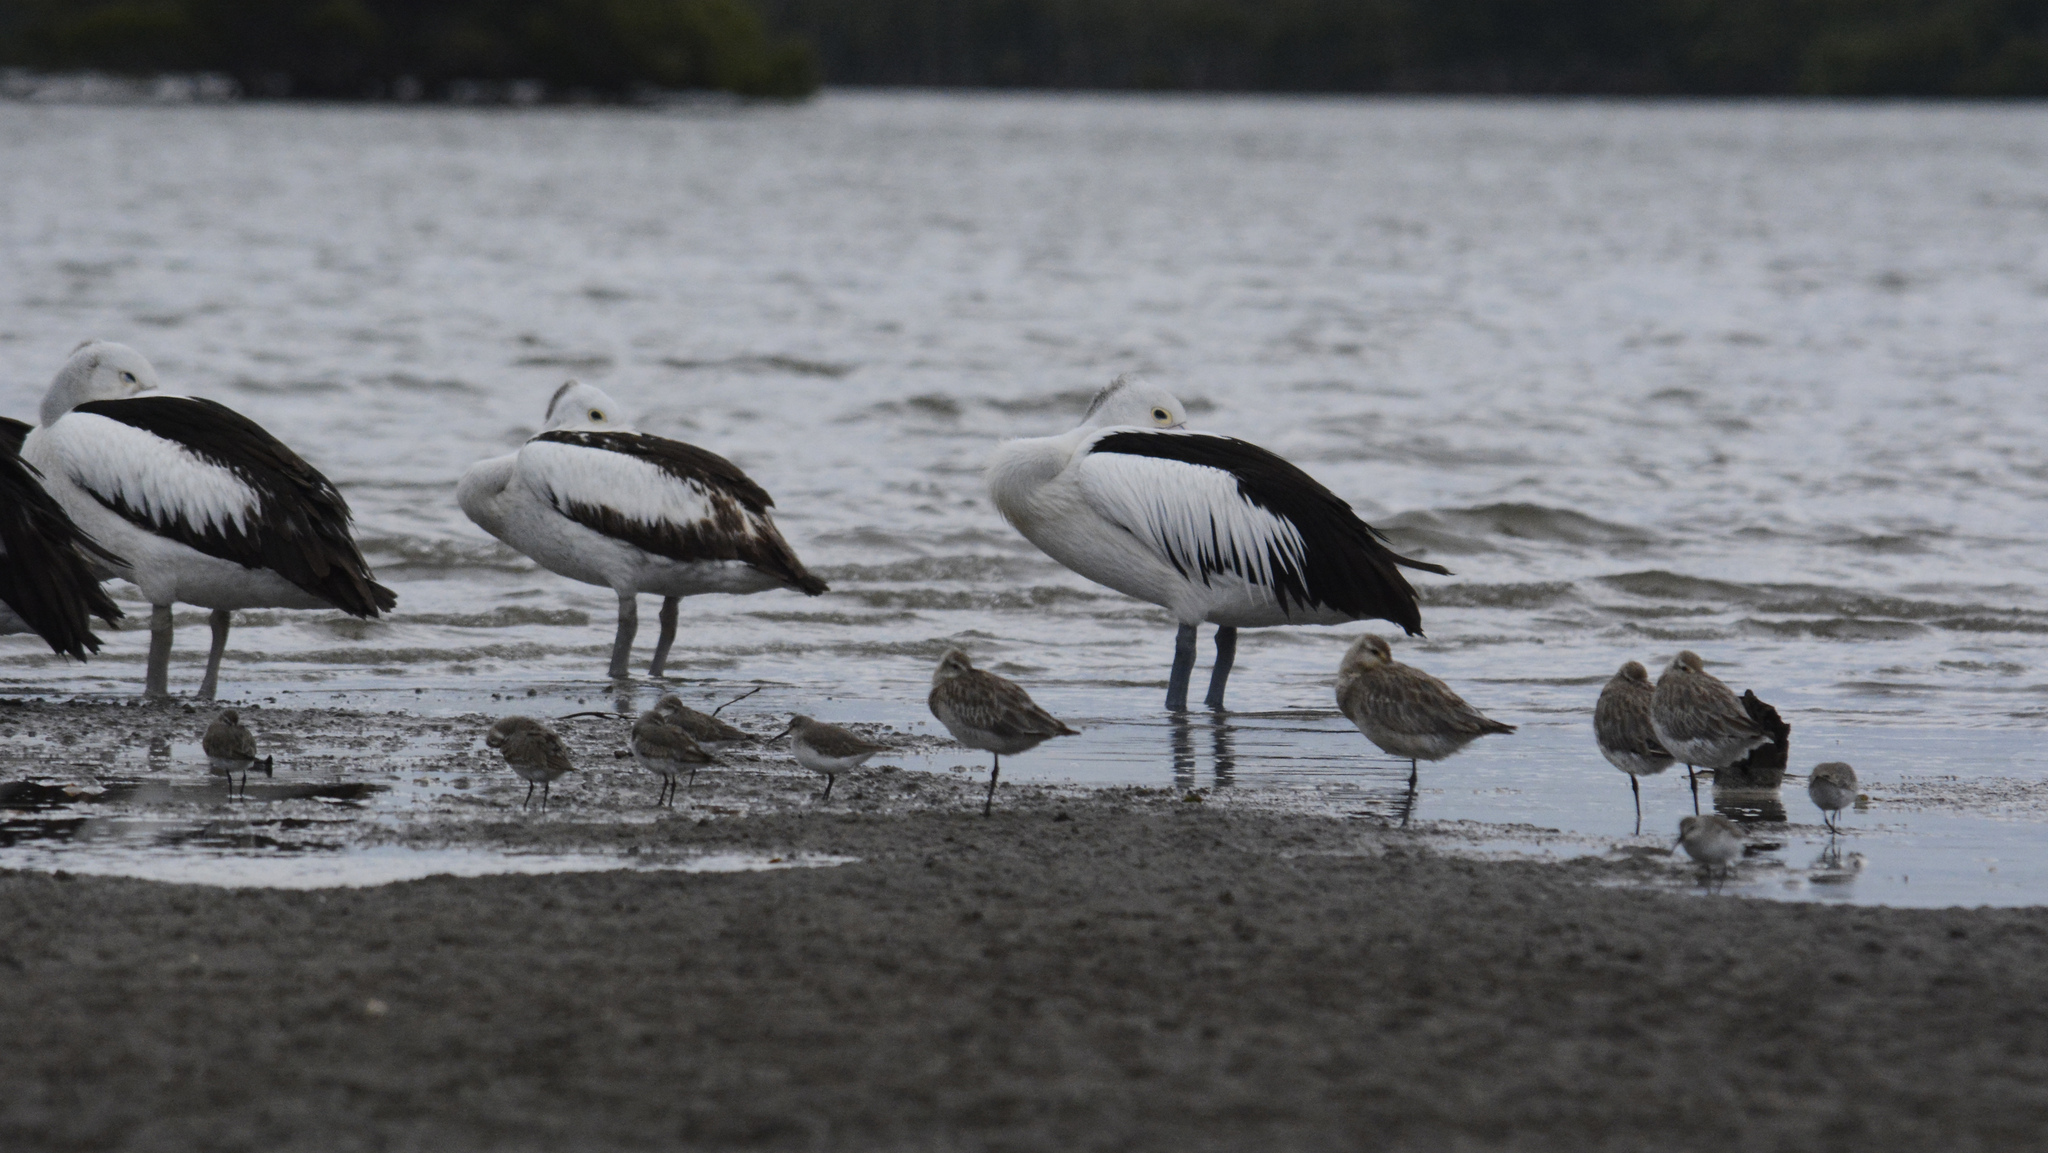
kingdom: Animalia
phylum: Chordata
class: Aves
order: Pelecaniformes
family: Pelecanidae
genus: Pelecanus
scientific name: Pelecanus conspicillatus
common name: Australian pelican
